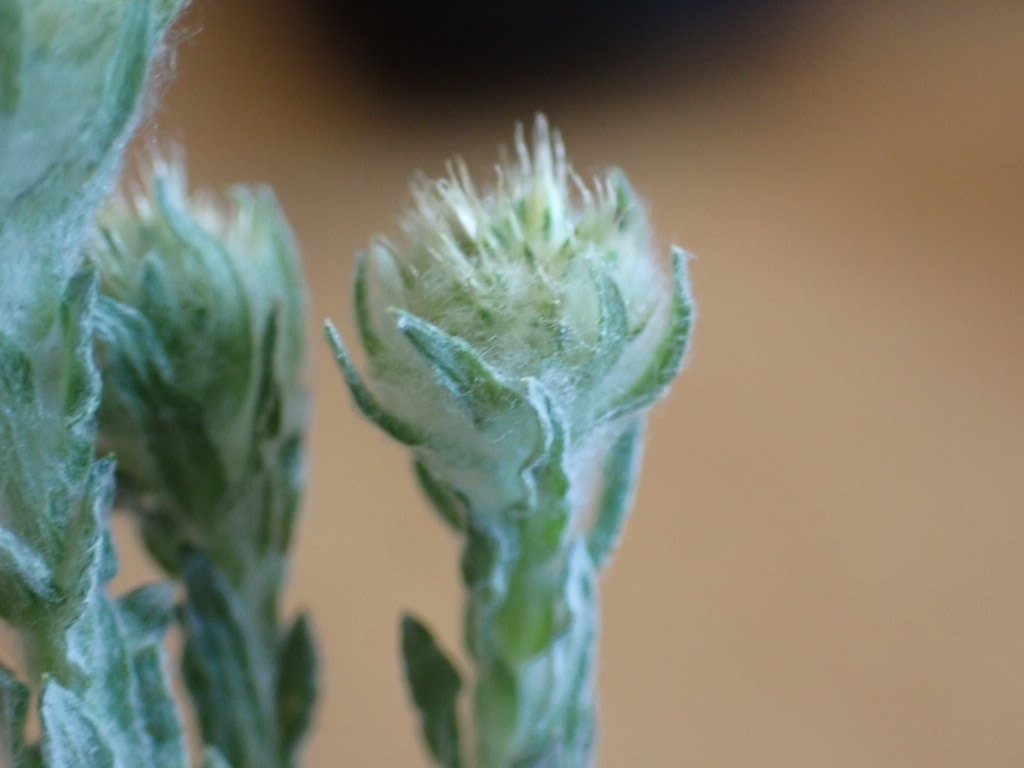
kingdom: Plantae
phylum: Tracheophyta
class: Magnoliopsida
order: Asterales
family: Asteraceae
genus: Filago
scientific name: Filago germanica
